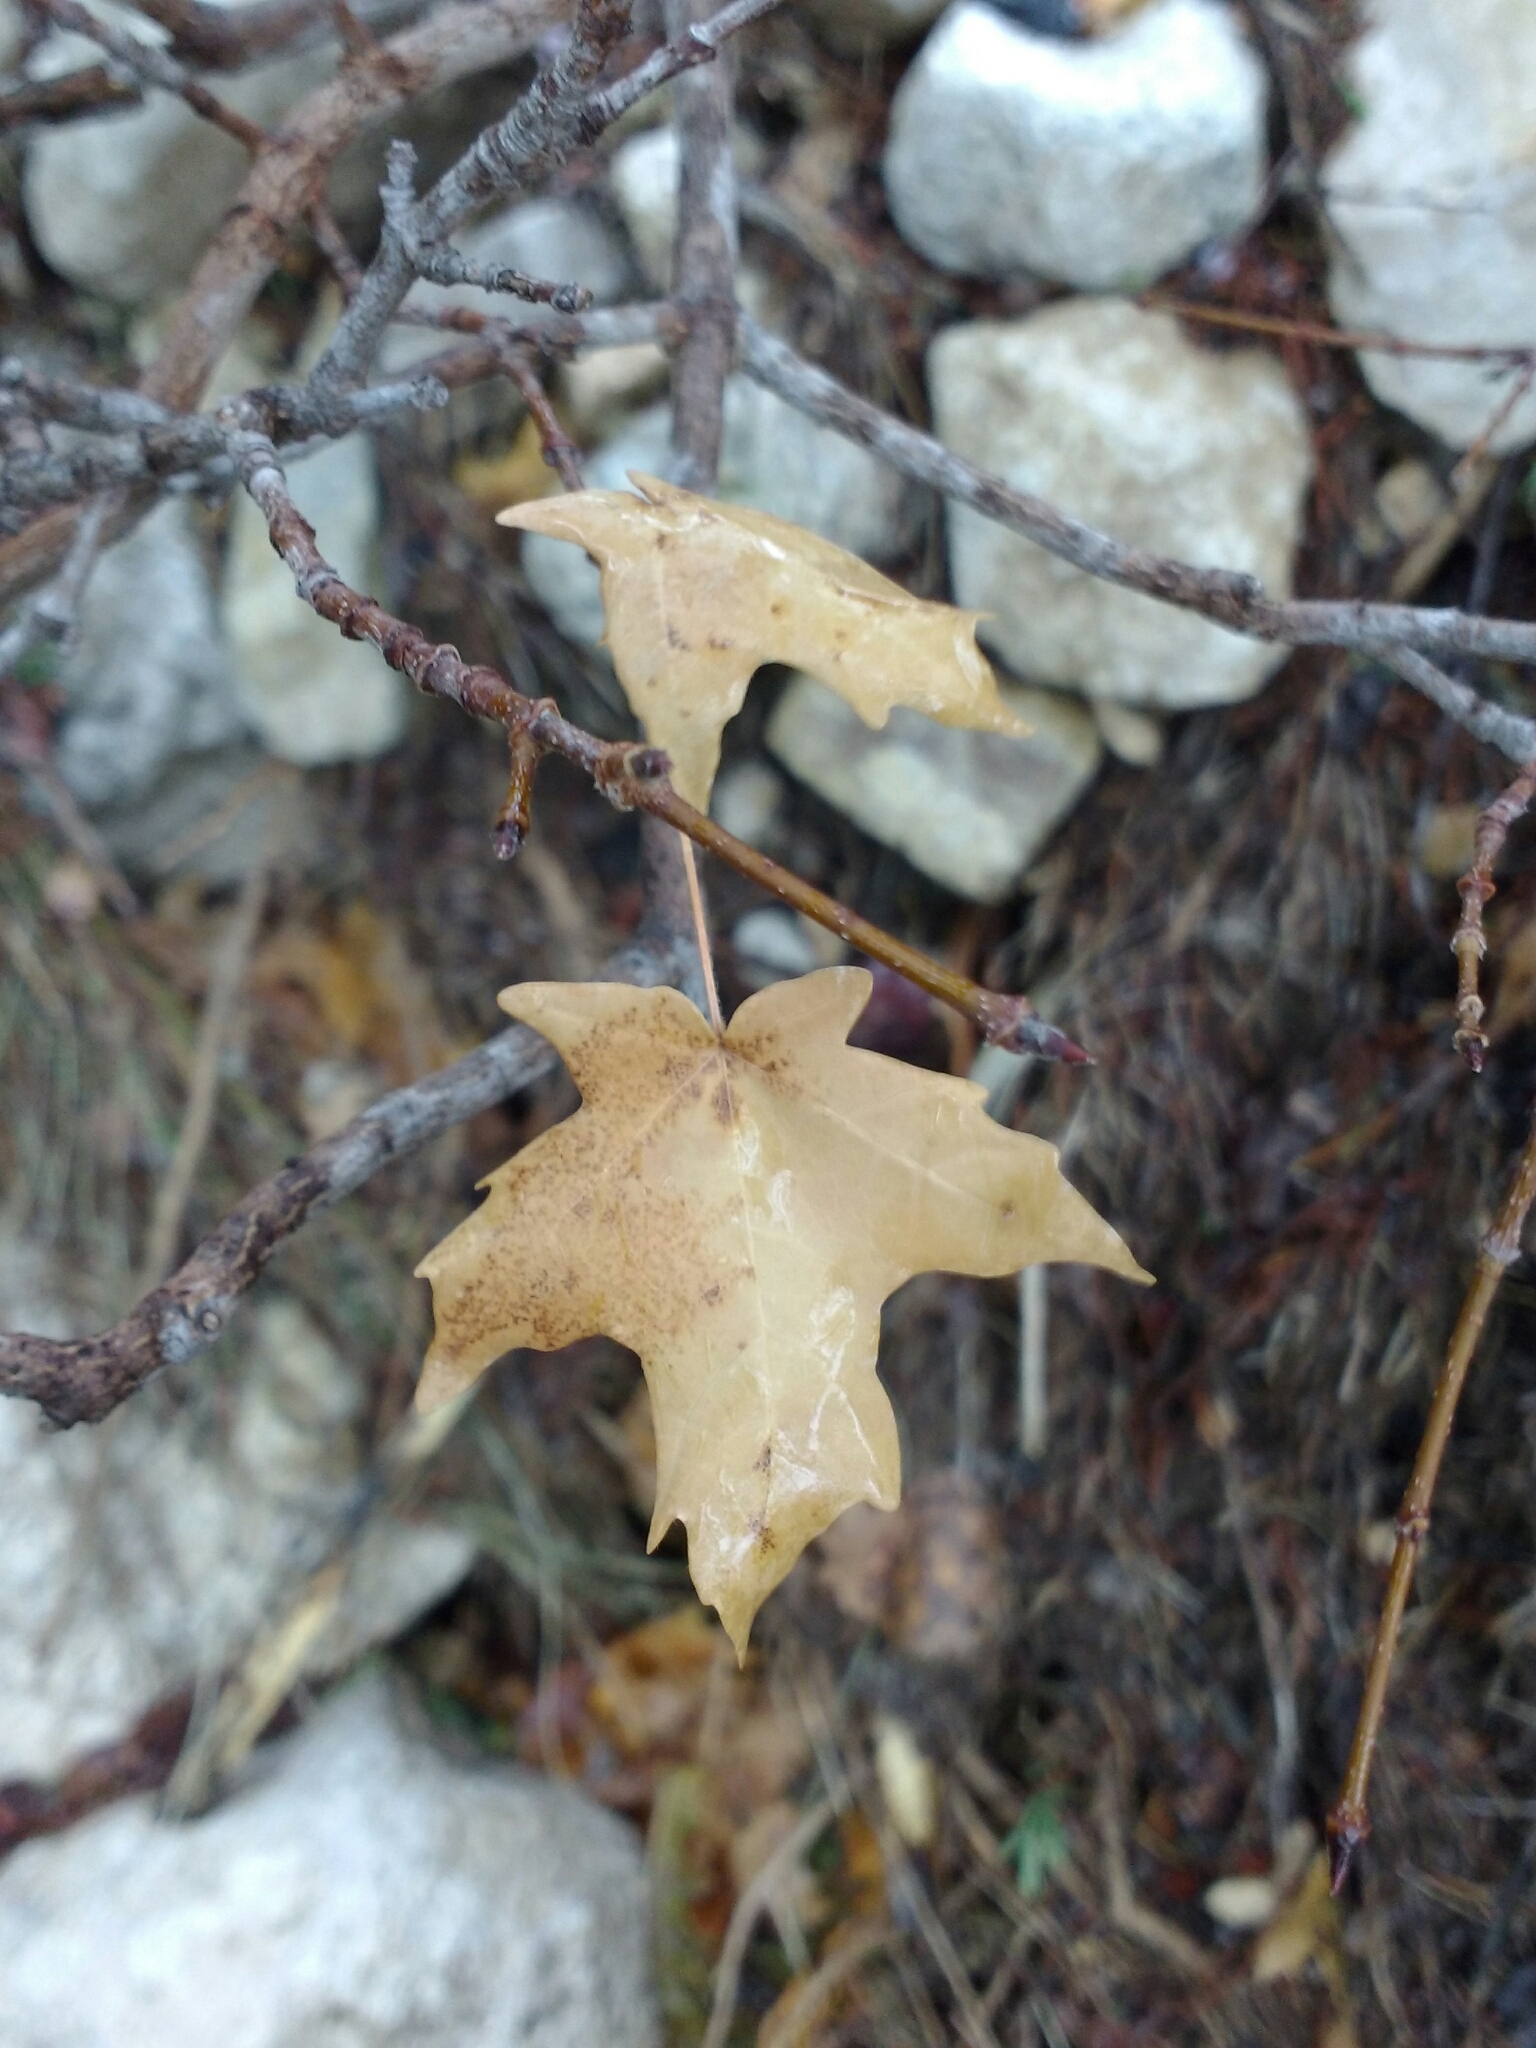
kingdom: Plantae
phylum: Tracheophyta
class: Magnoliopsida
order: Sapindales
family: Sapindaceae
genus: Acer
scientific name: Acer grandidentatum
